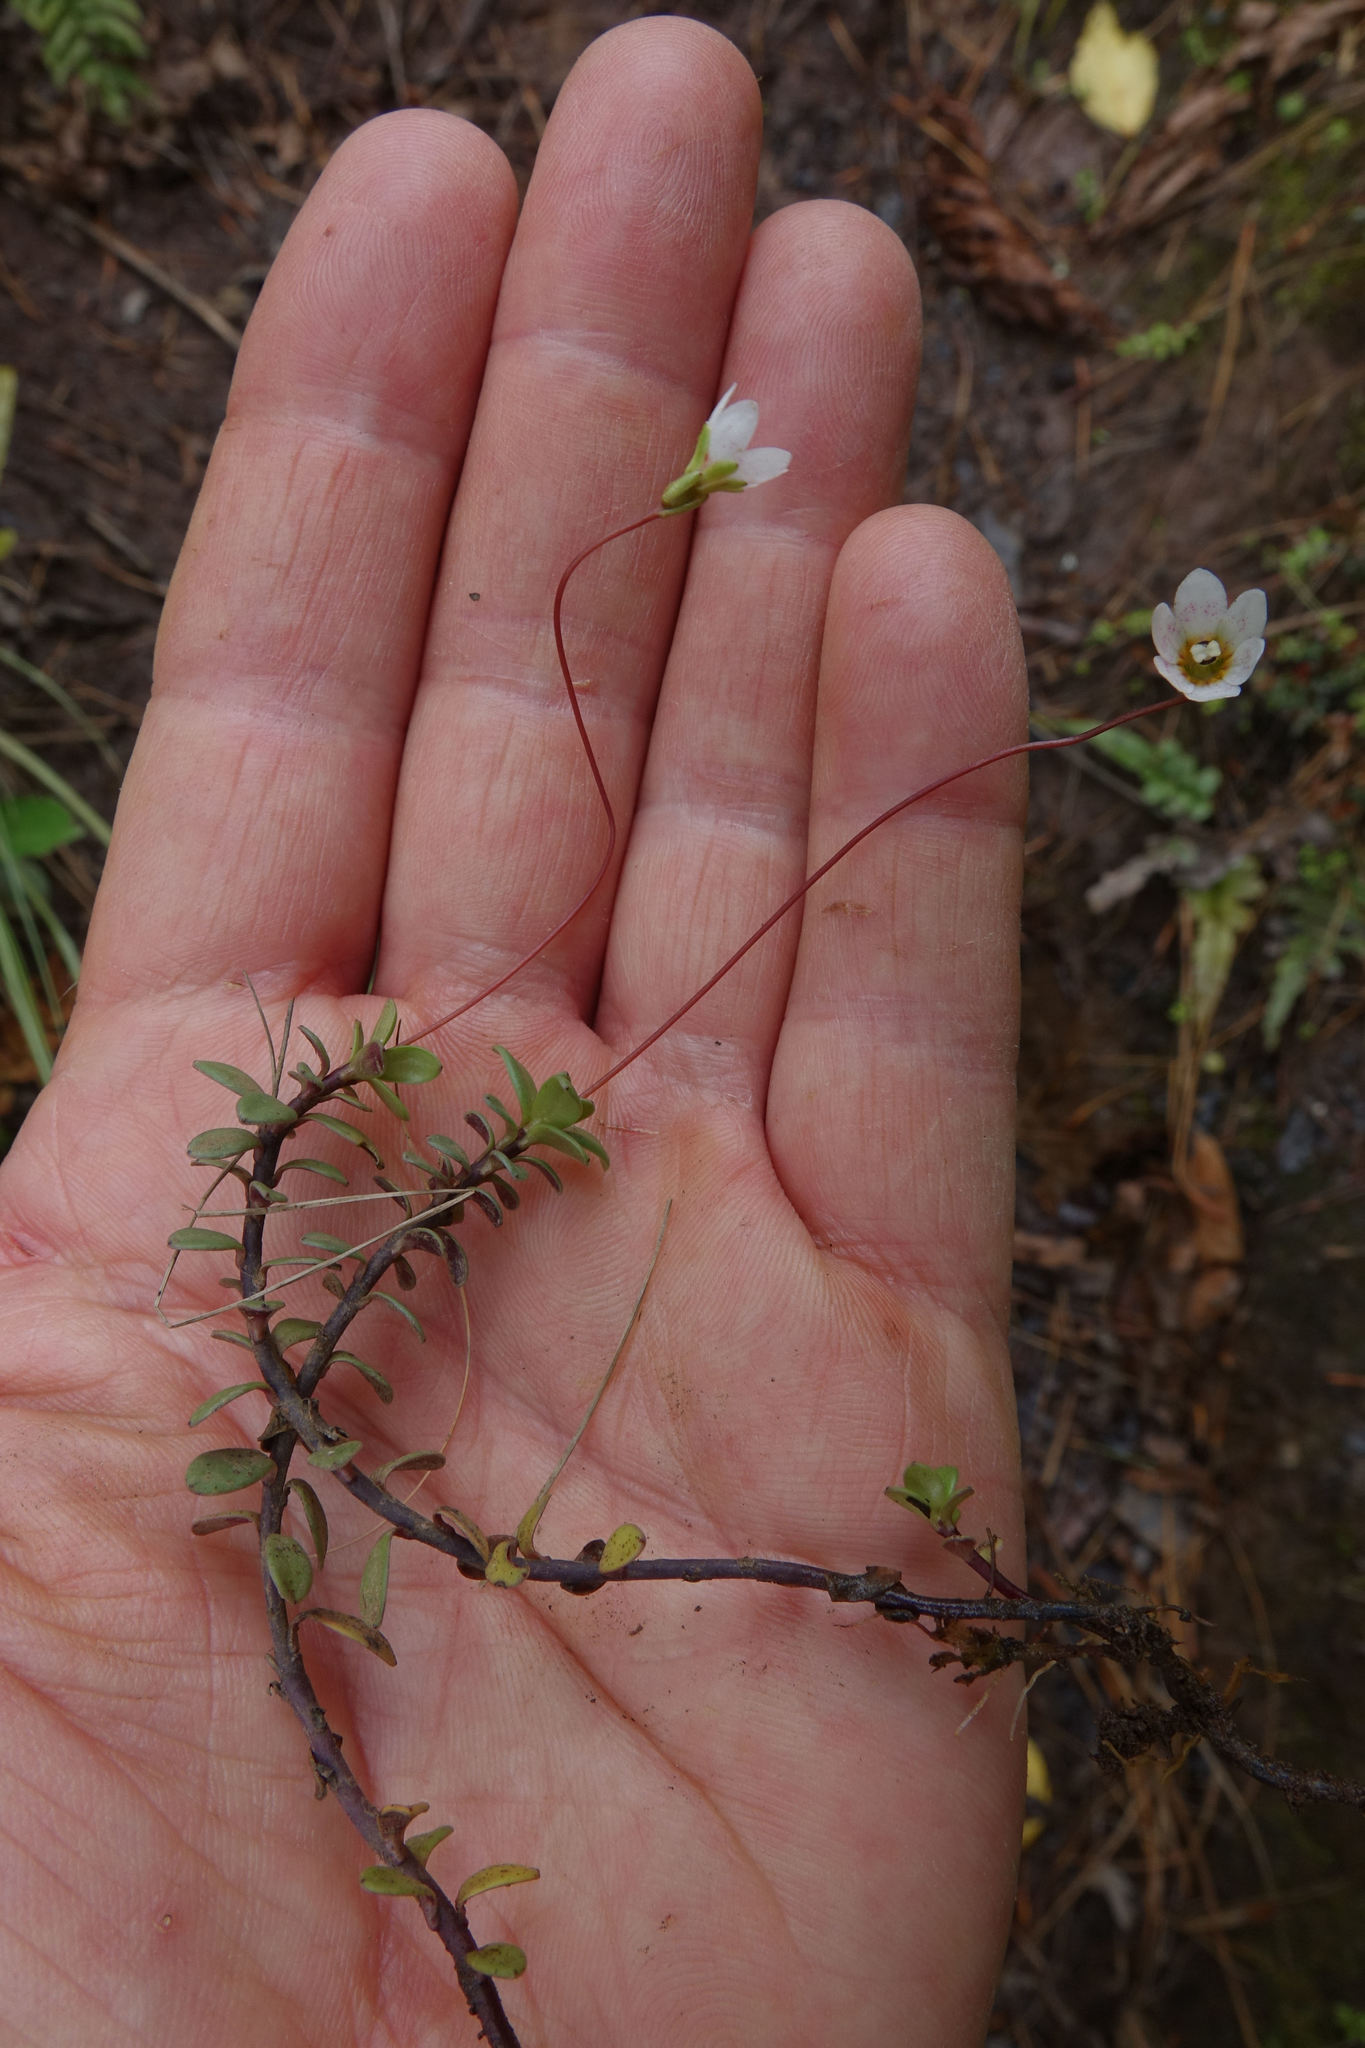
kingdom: Plantae
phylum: Tracheophyta
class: Magnoliopsida
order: Asterales
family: Stylidiaceae
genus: Forstera
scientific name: Forstera tenella
